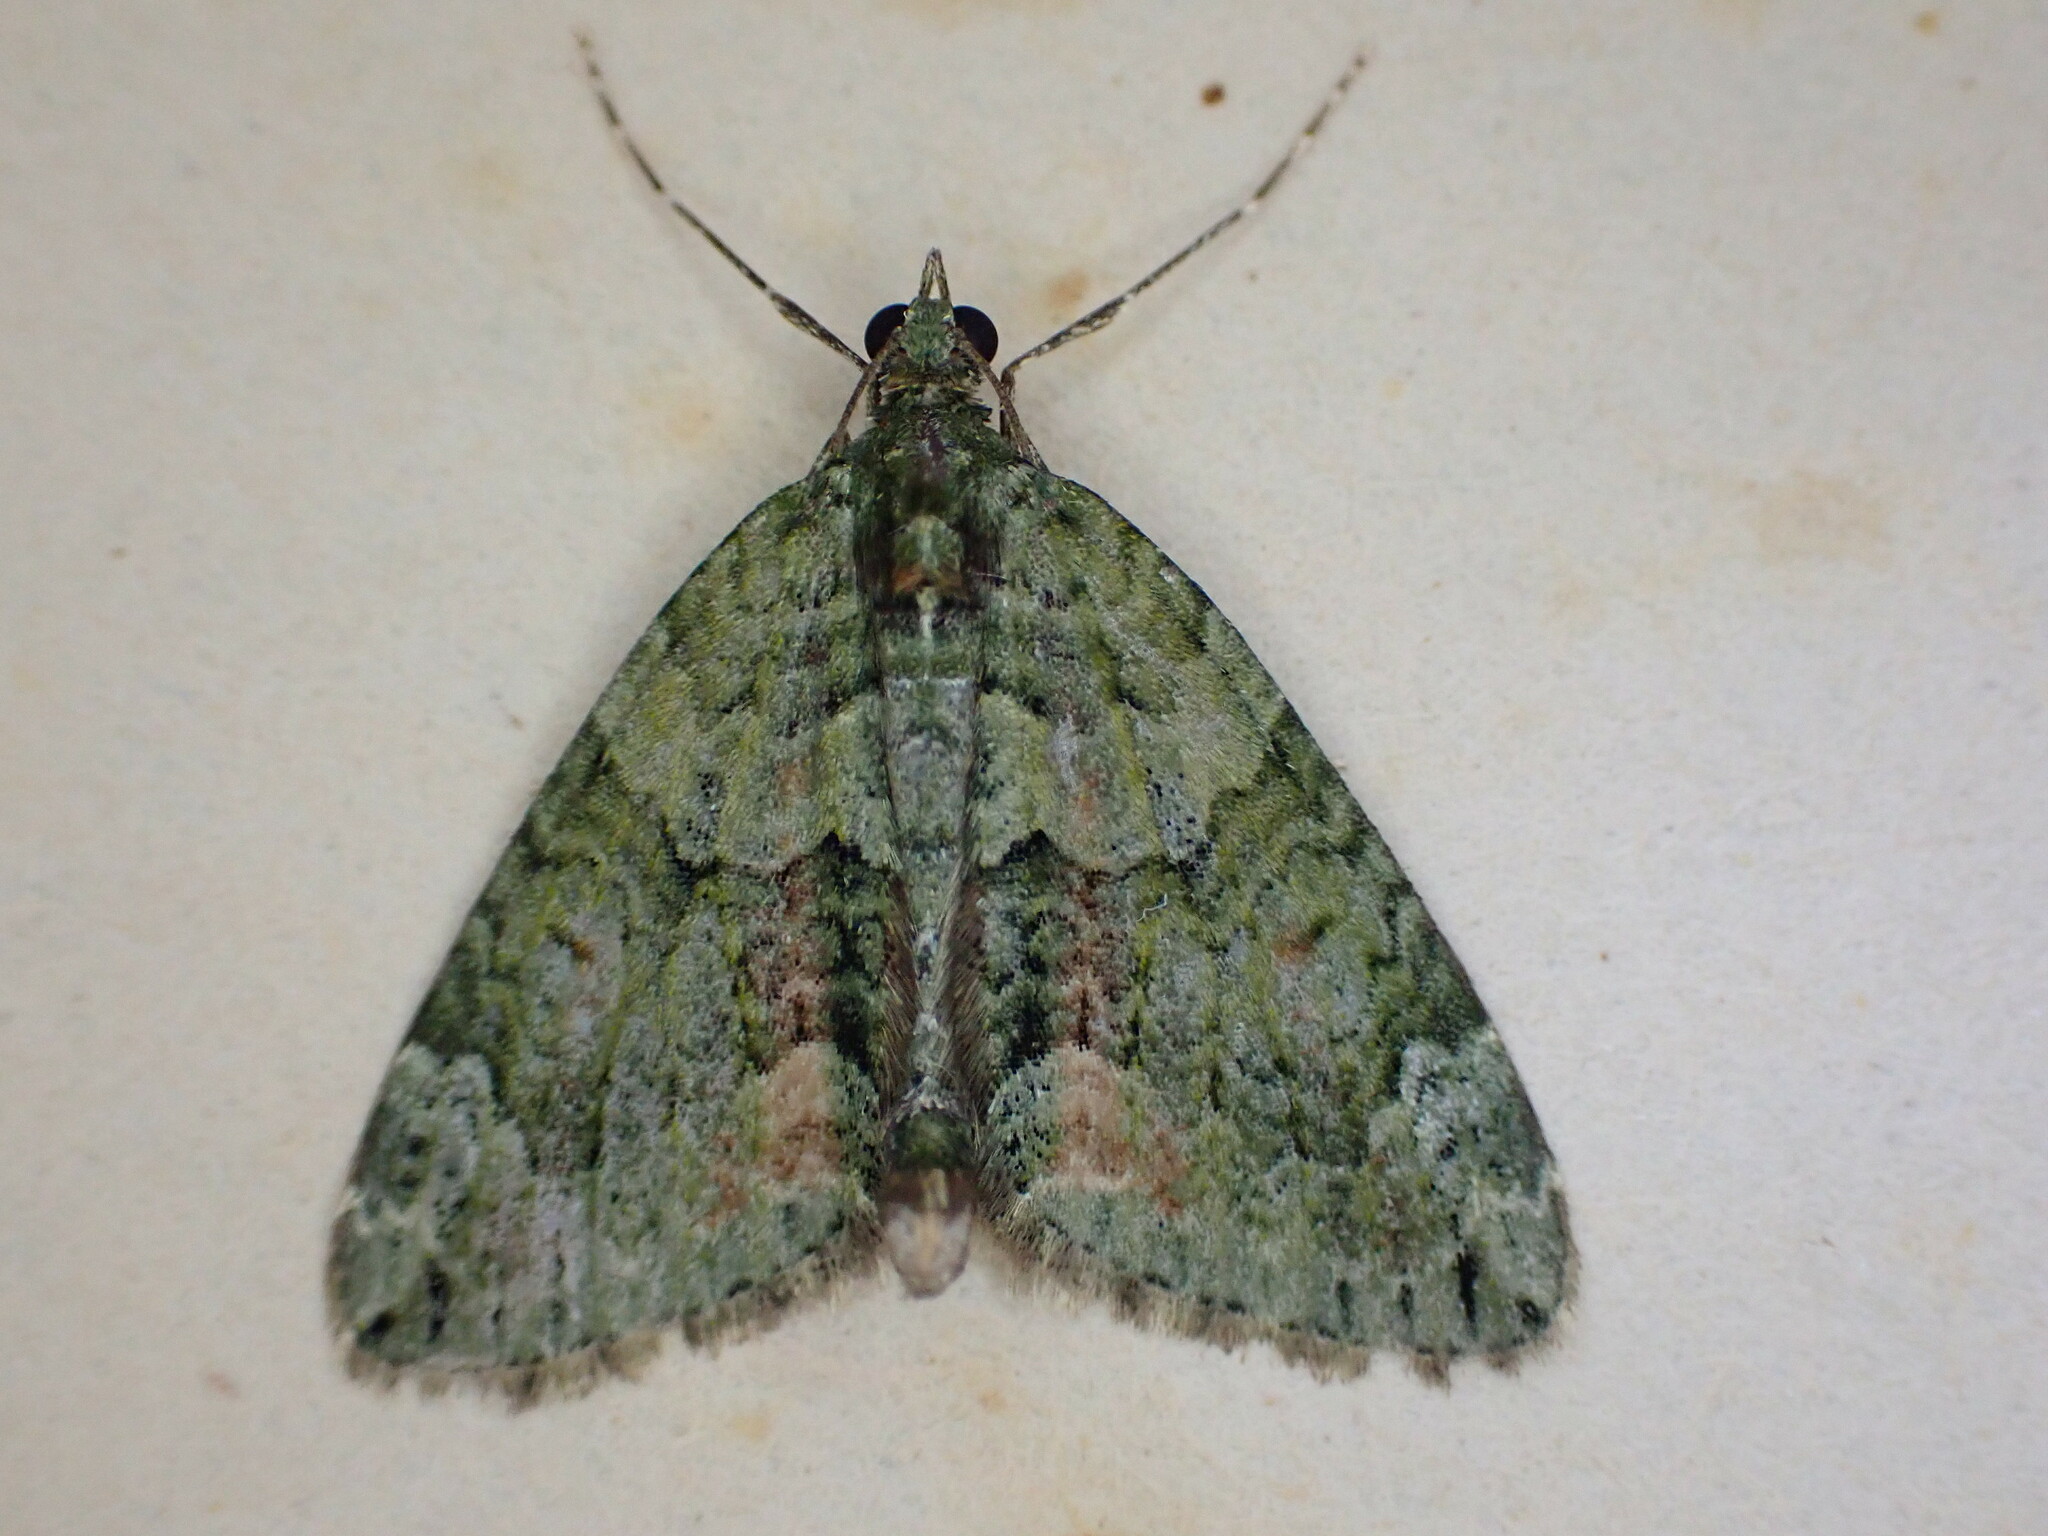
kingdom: Animalia
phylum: Arthropoda
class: Insecta
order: Lepidoptera
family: Geometridae
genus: Chloroclysta
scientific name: Chloroclysta siterata
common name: Red-green carpet
